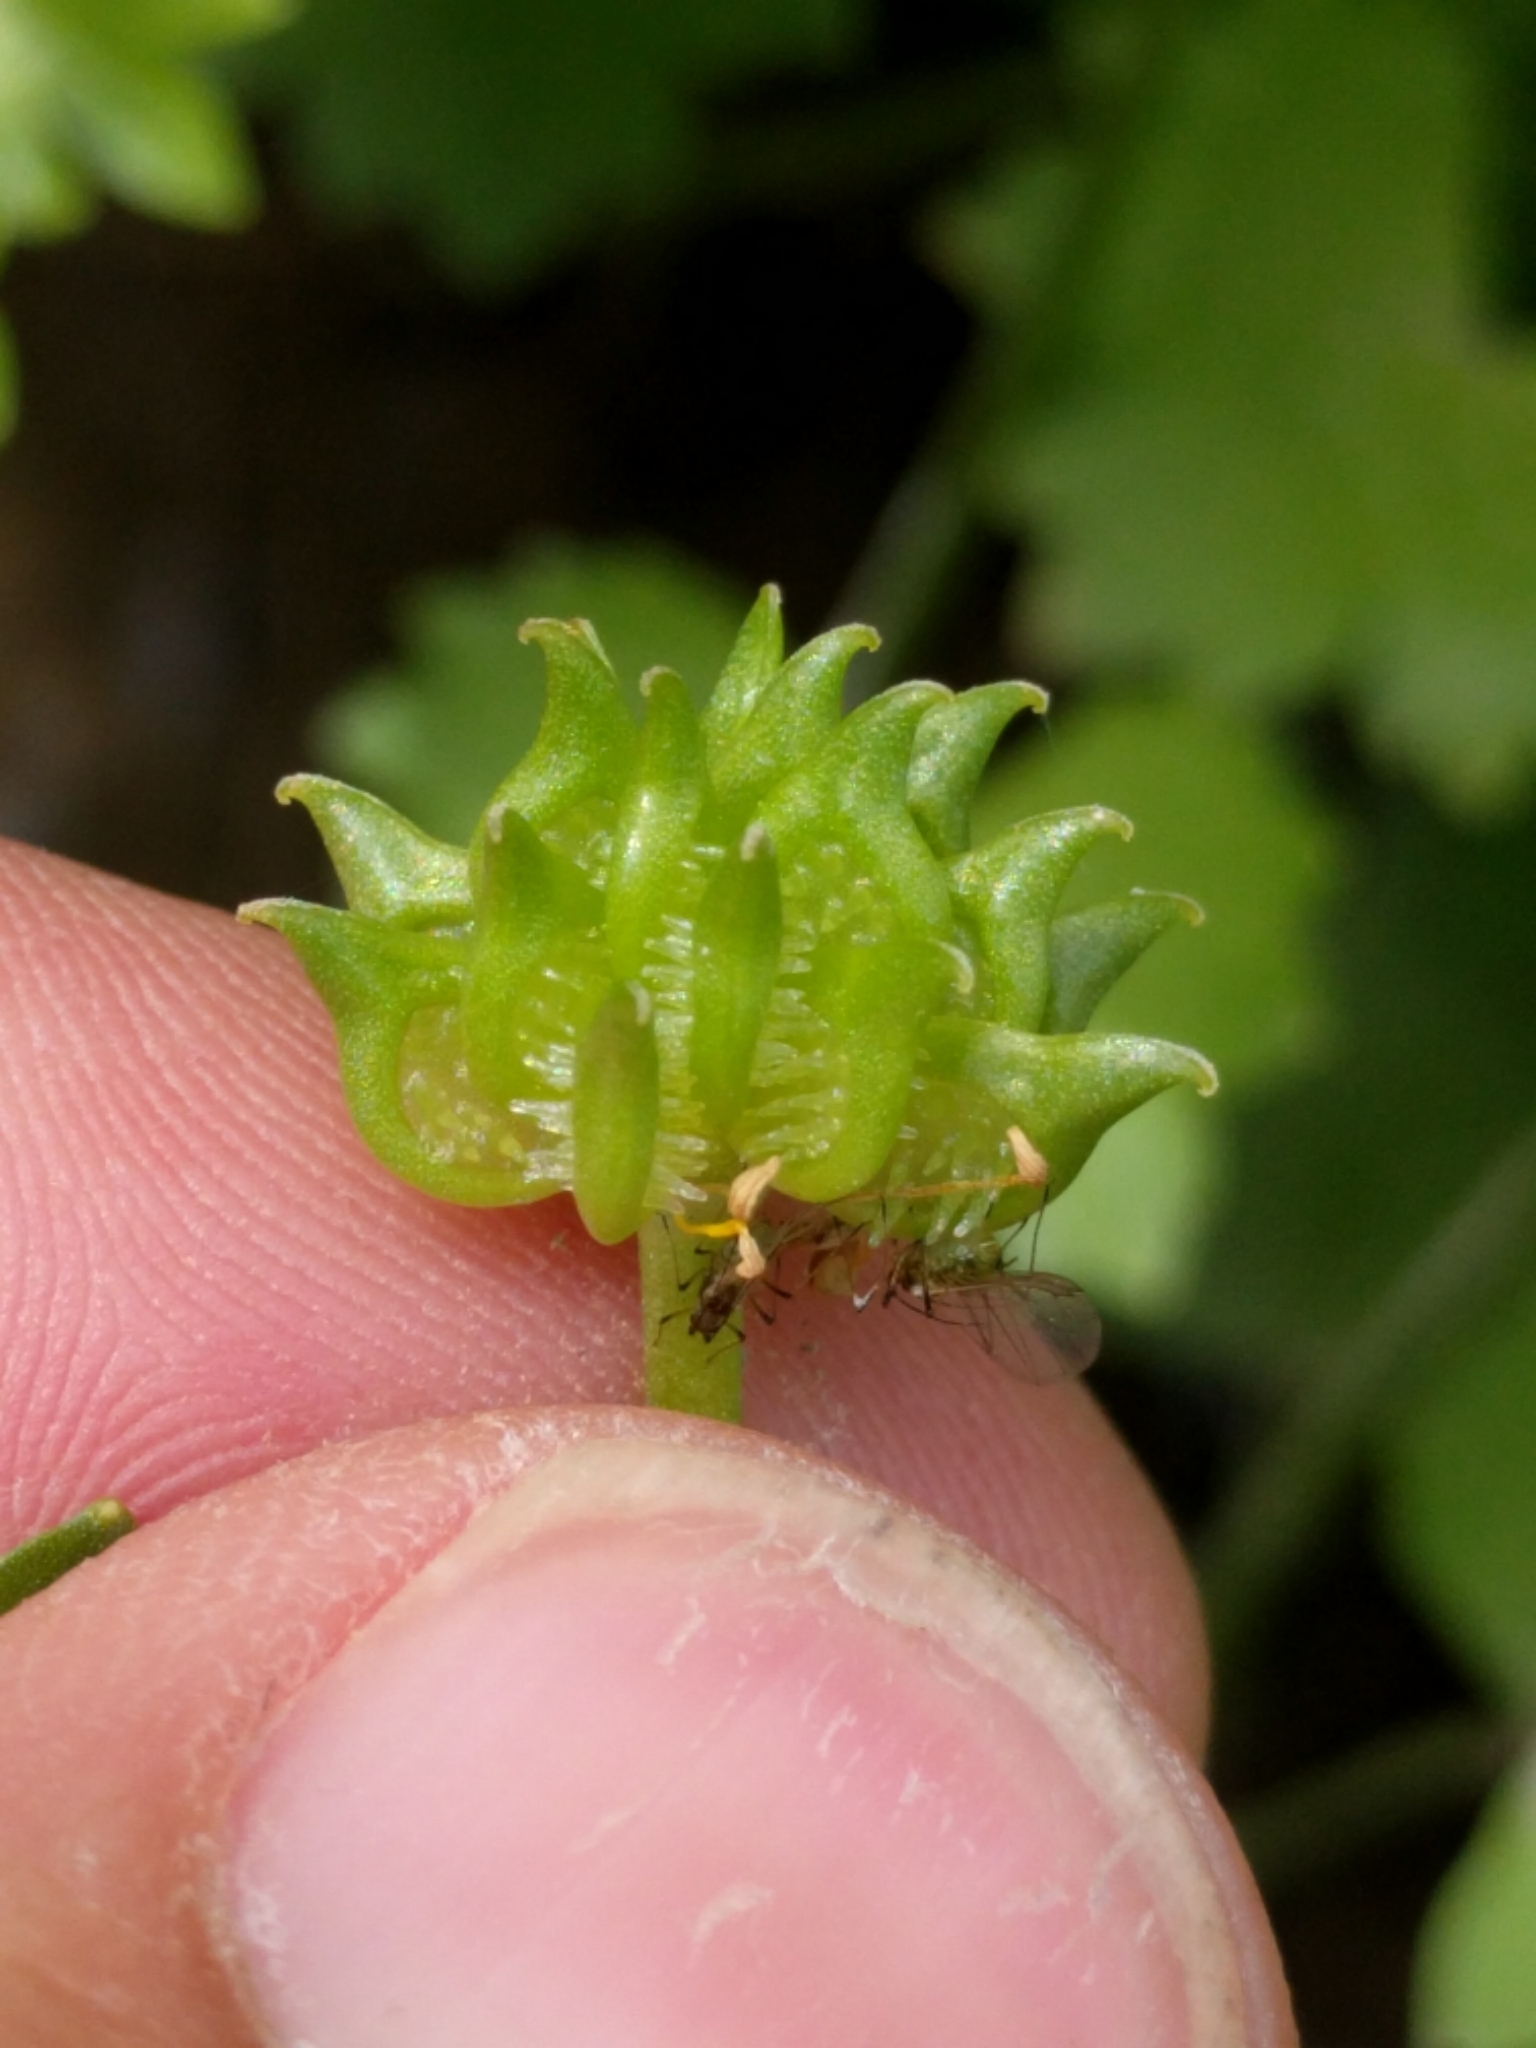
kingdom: Plantae
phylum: Tracheophyta
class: Magnoliopsida
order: Ranunculales
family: Ranunculaceae
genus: Ranunculus
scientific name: Ranunculus muricatus
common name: Rough-fruited buttercup
